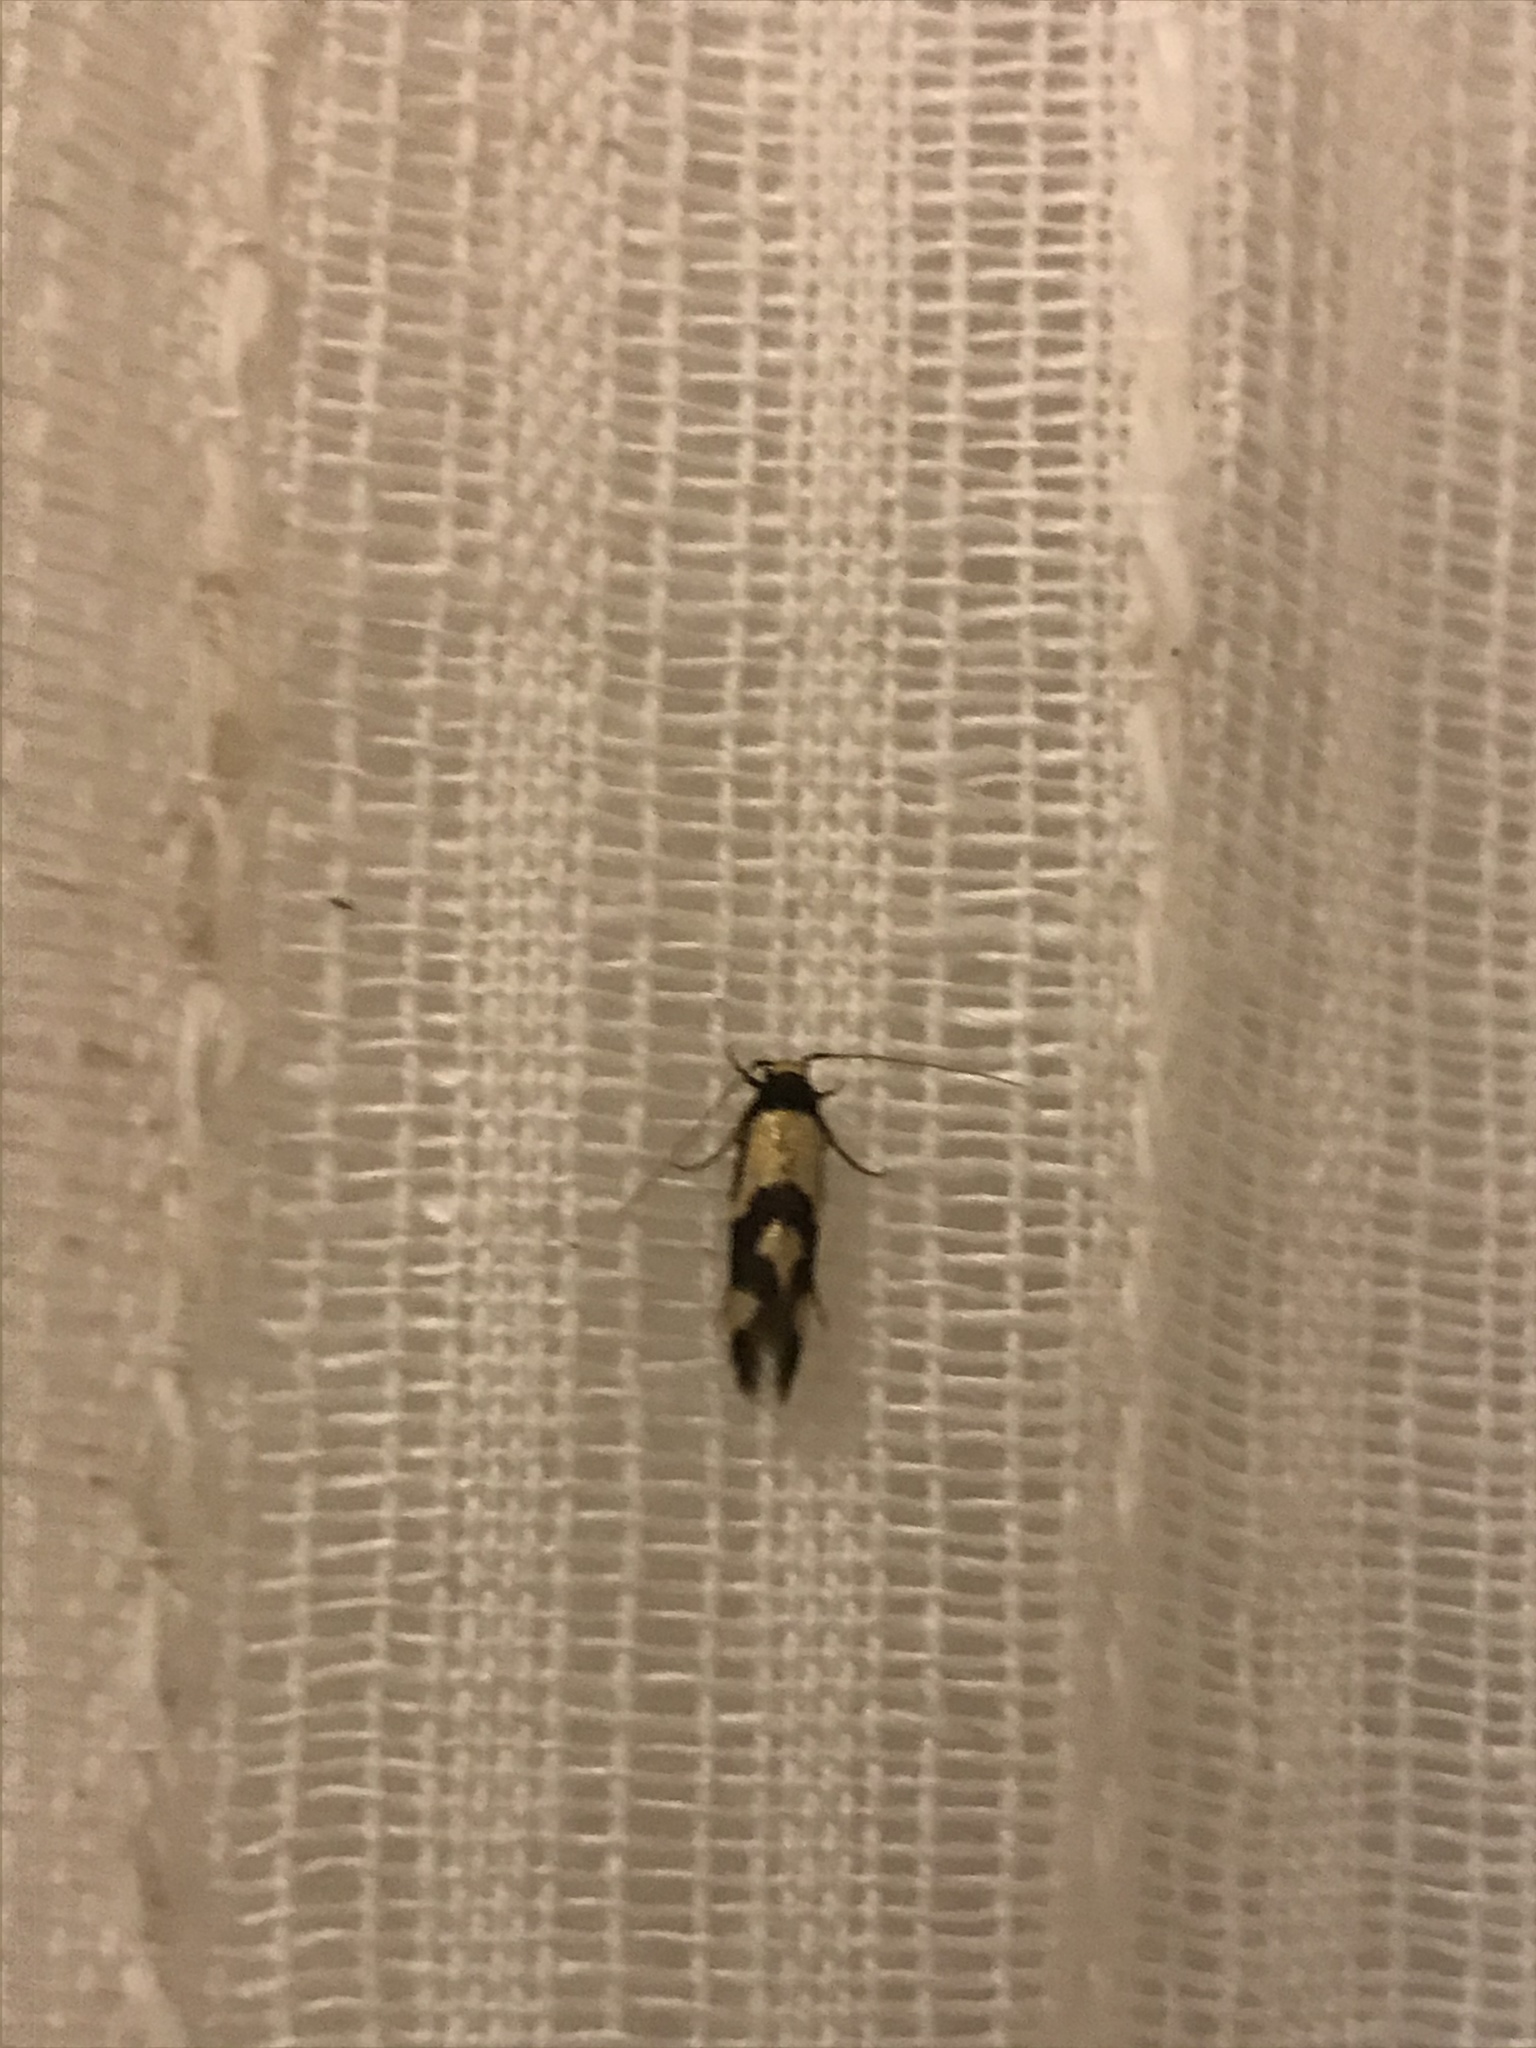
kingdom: Animalia
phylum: Arthropoda
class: Insecta
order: Lepidoptera
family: Tineidae
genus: Opogona
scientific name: Opogona comptella
